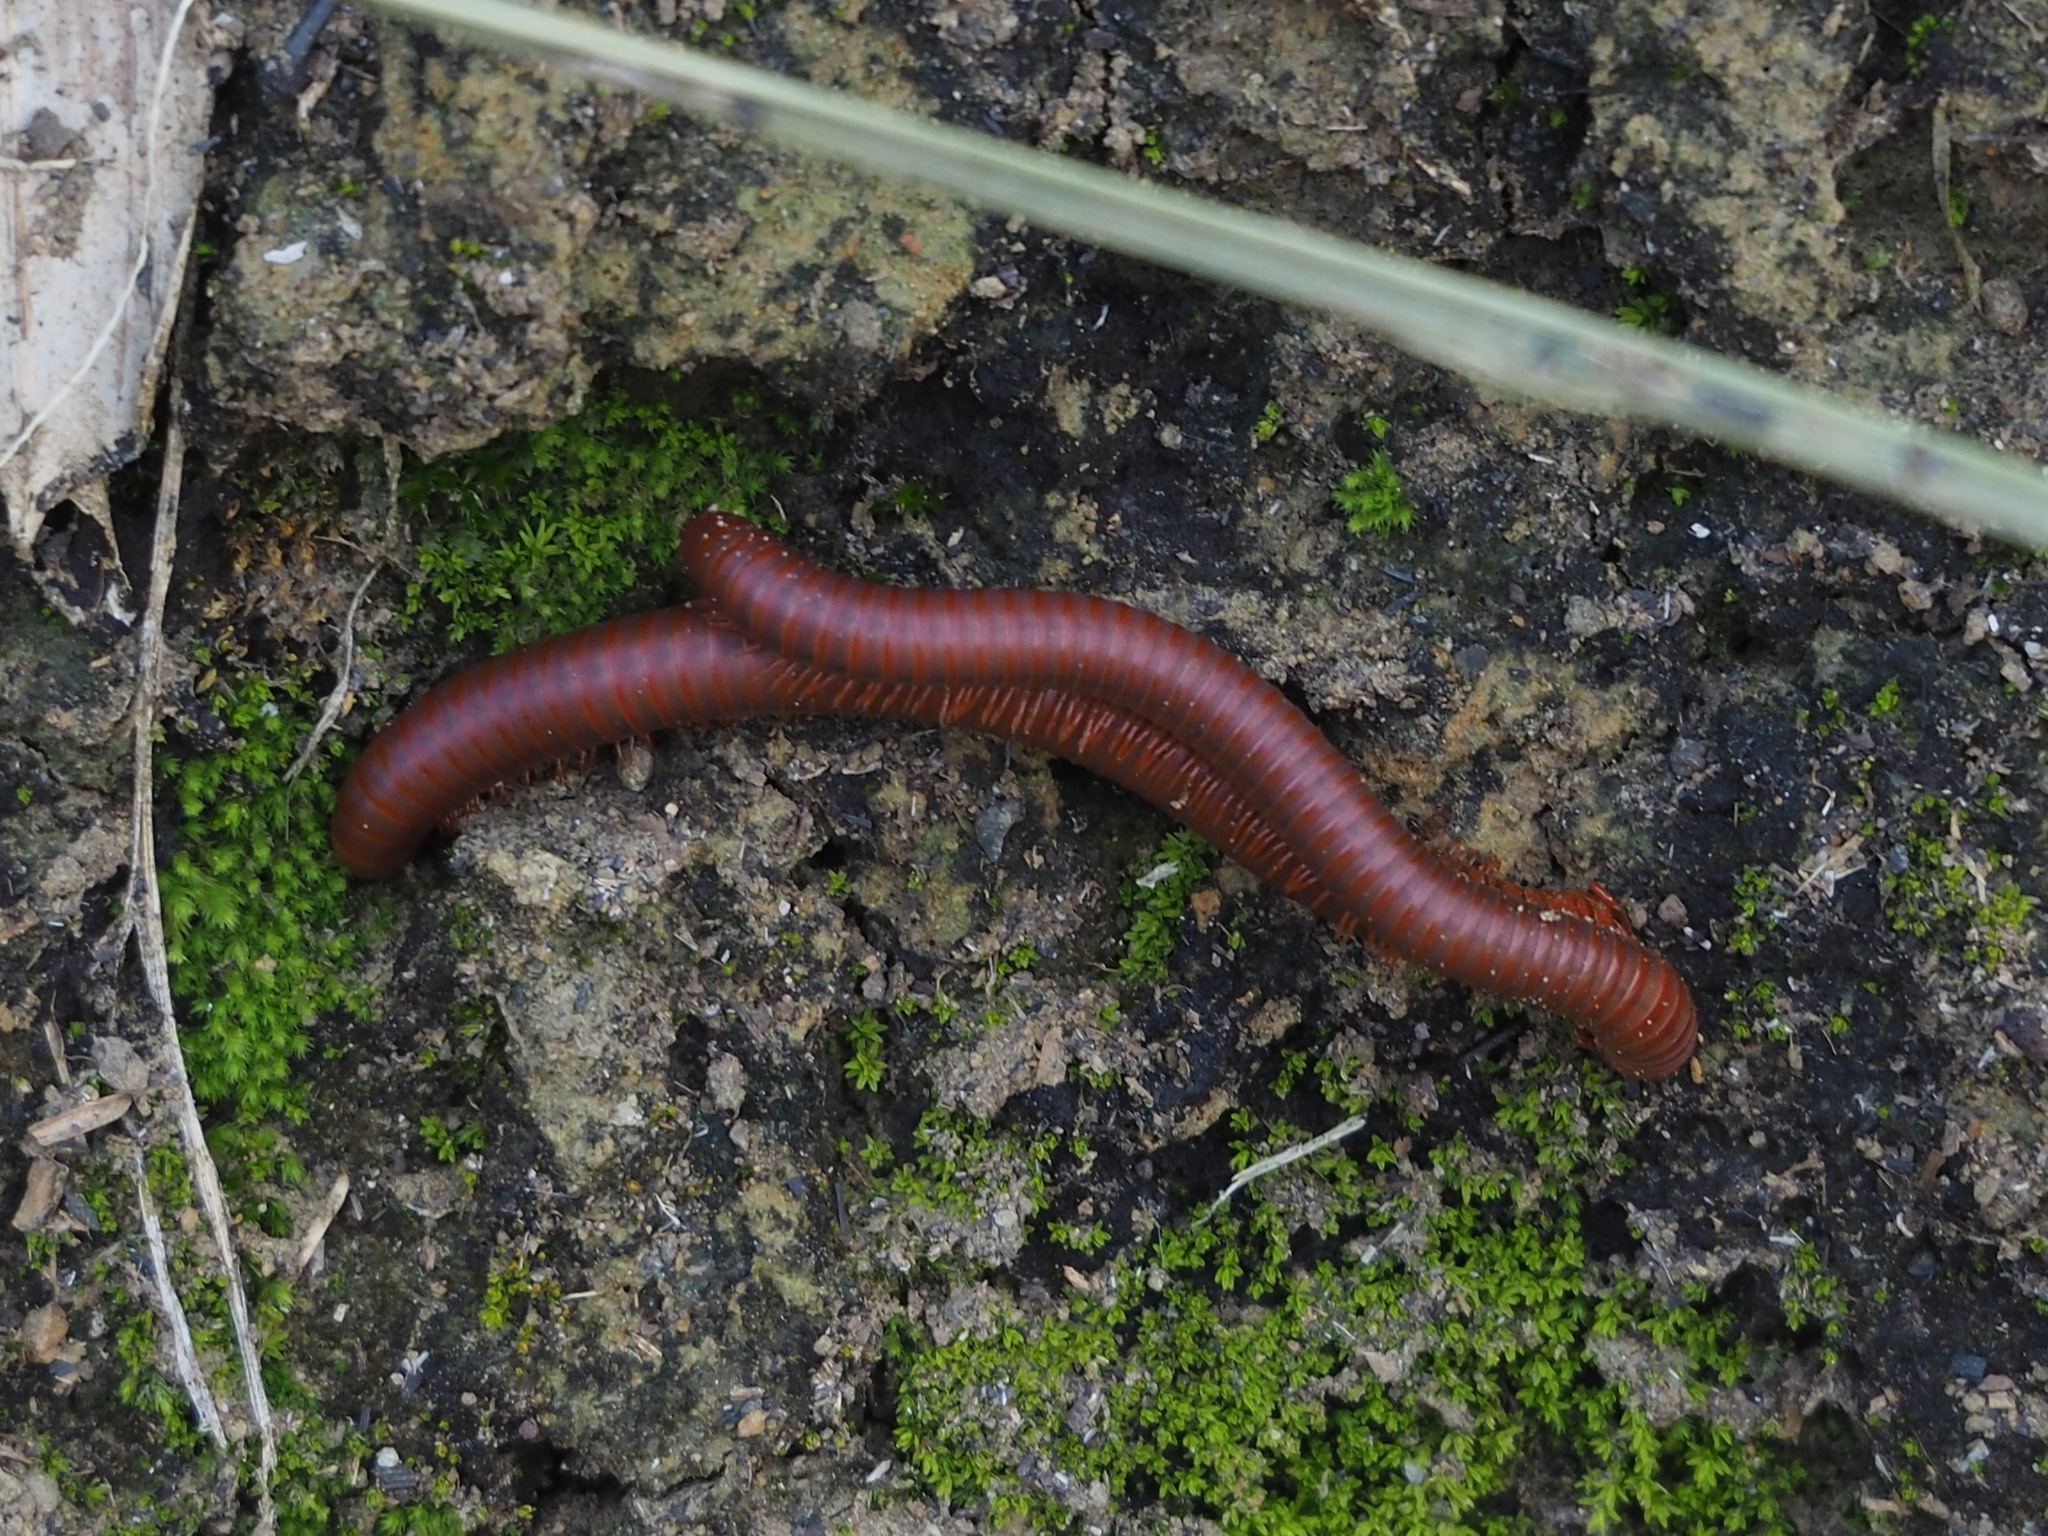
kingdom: Animalia
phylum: Arthropoda
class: Diplopoda
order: Spirobolida
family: Pachybolidae
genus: Trigoniulus
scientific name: Trigoniulus corallinus
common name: Millipede
